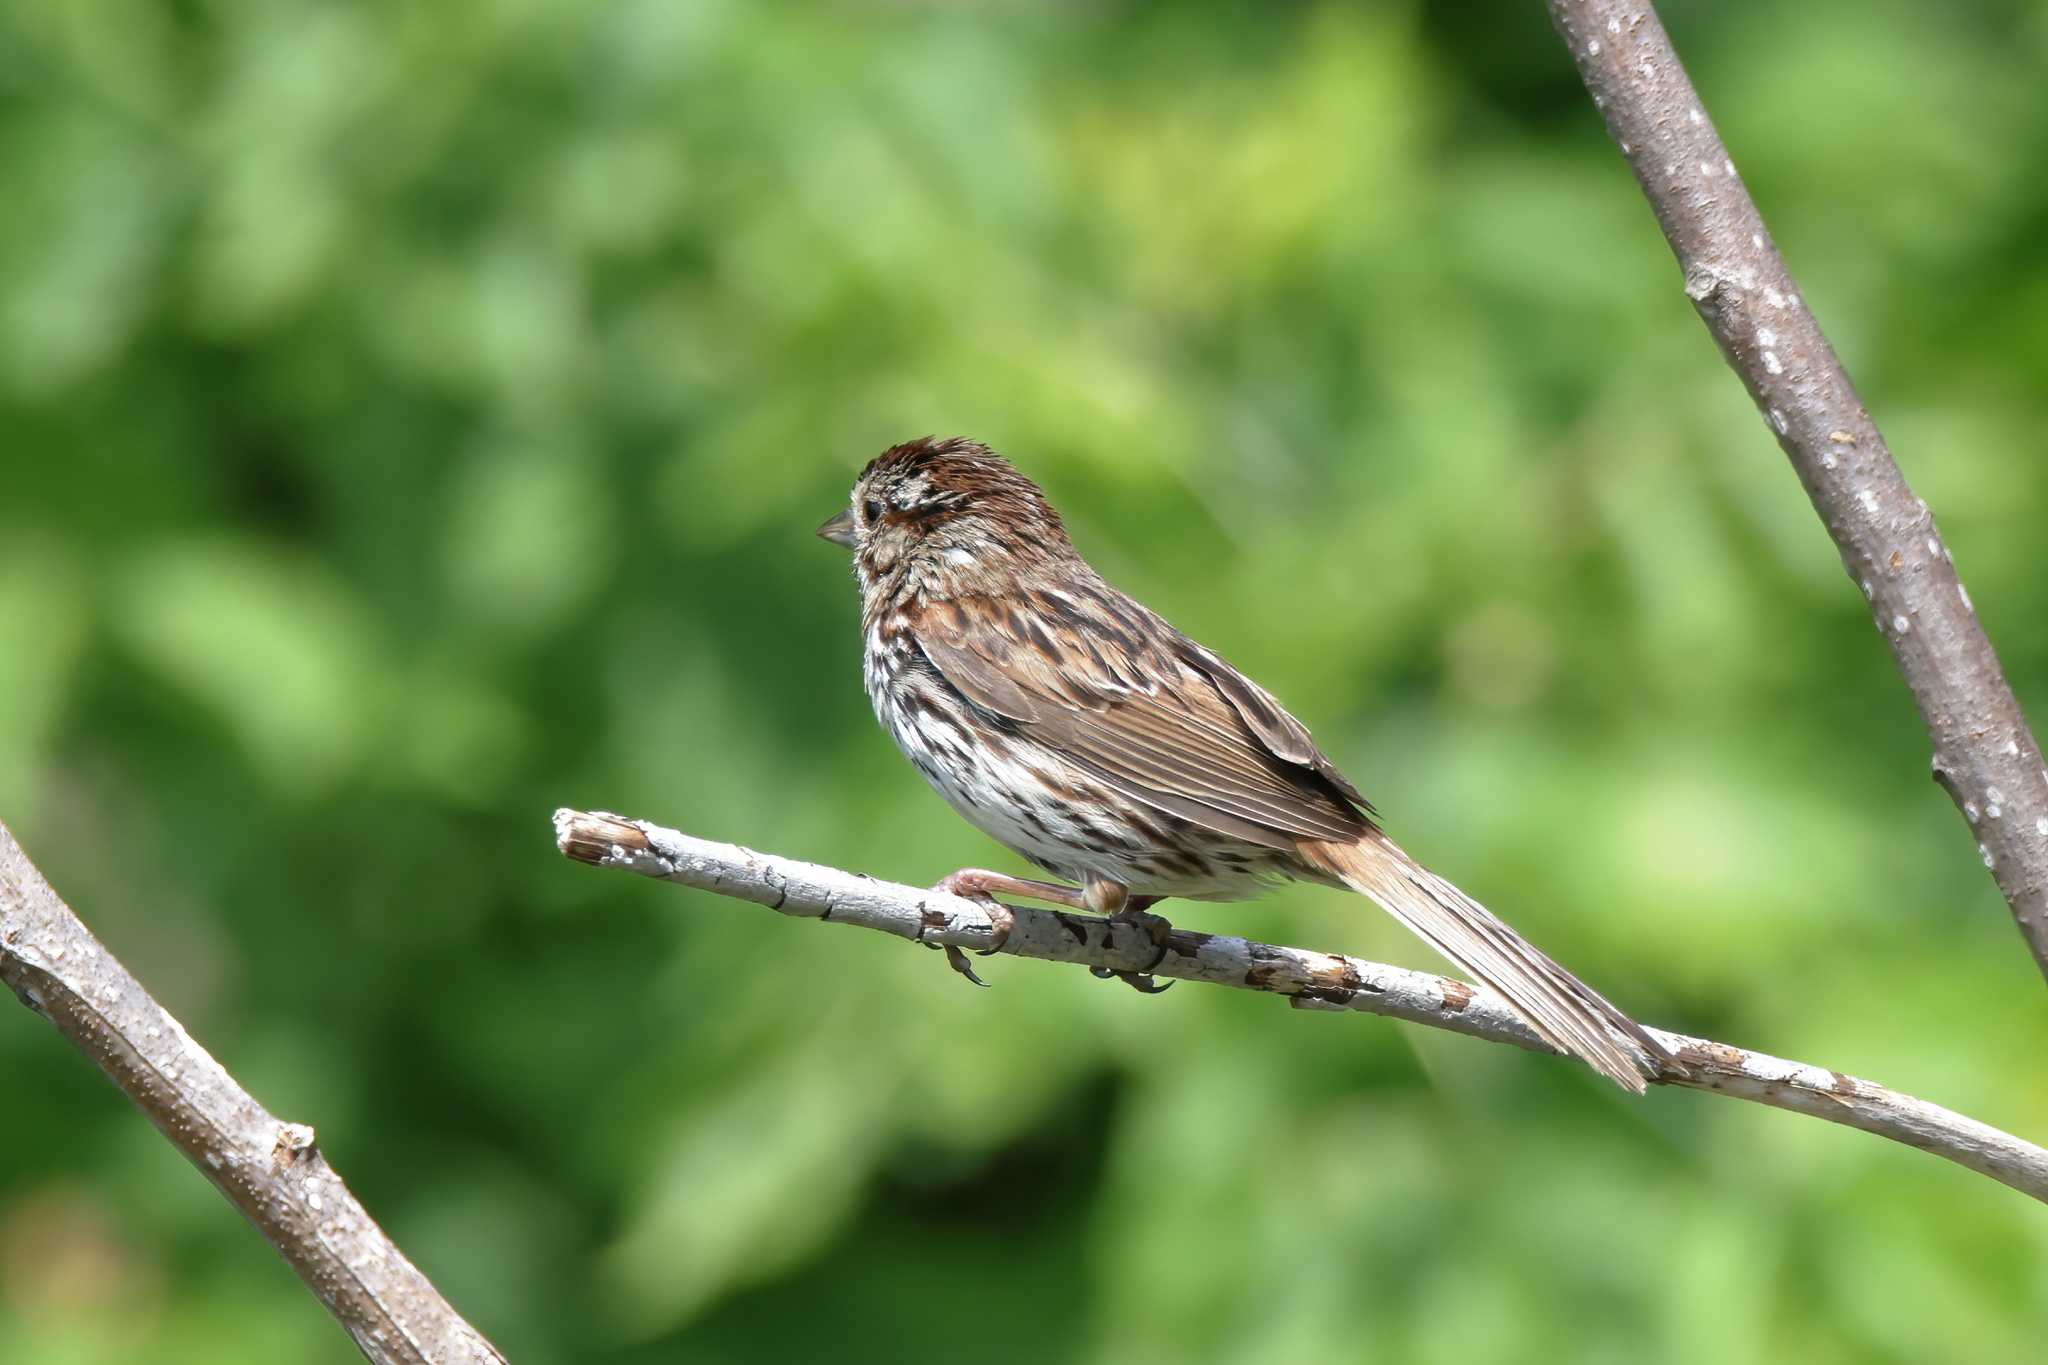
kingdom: Animalia
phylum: Chordata
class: Aves
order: Passeriformes
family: Passerellidae
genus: Melospiza
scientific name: Melospiza melodia
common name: Song sparrow
